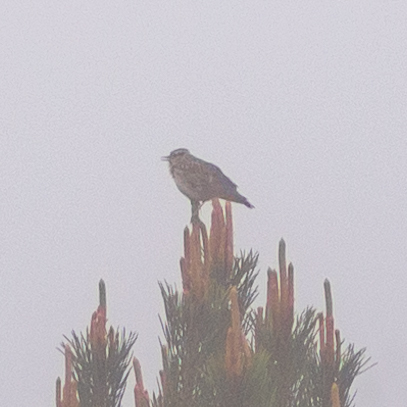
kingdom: Animalia
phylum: Chordata
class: Aves
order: Passeriformes
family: Alaudidae
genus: Lullula
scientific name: Lullula arborea
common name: Woodlark
